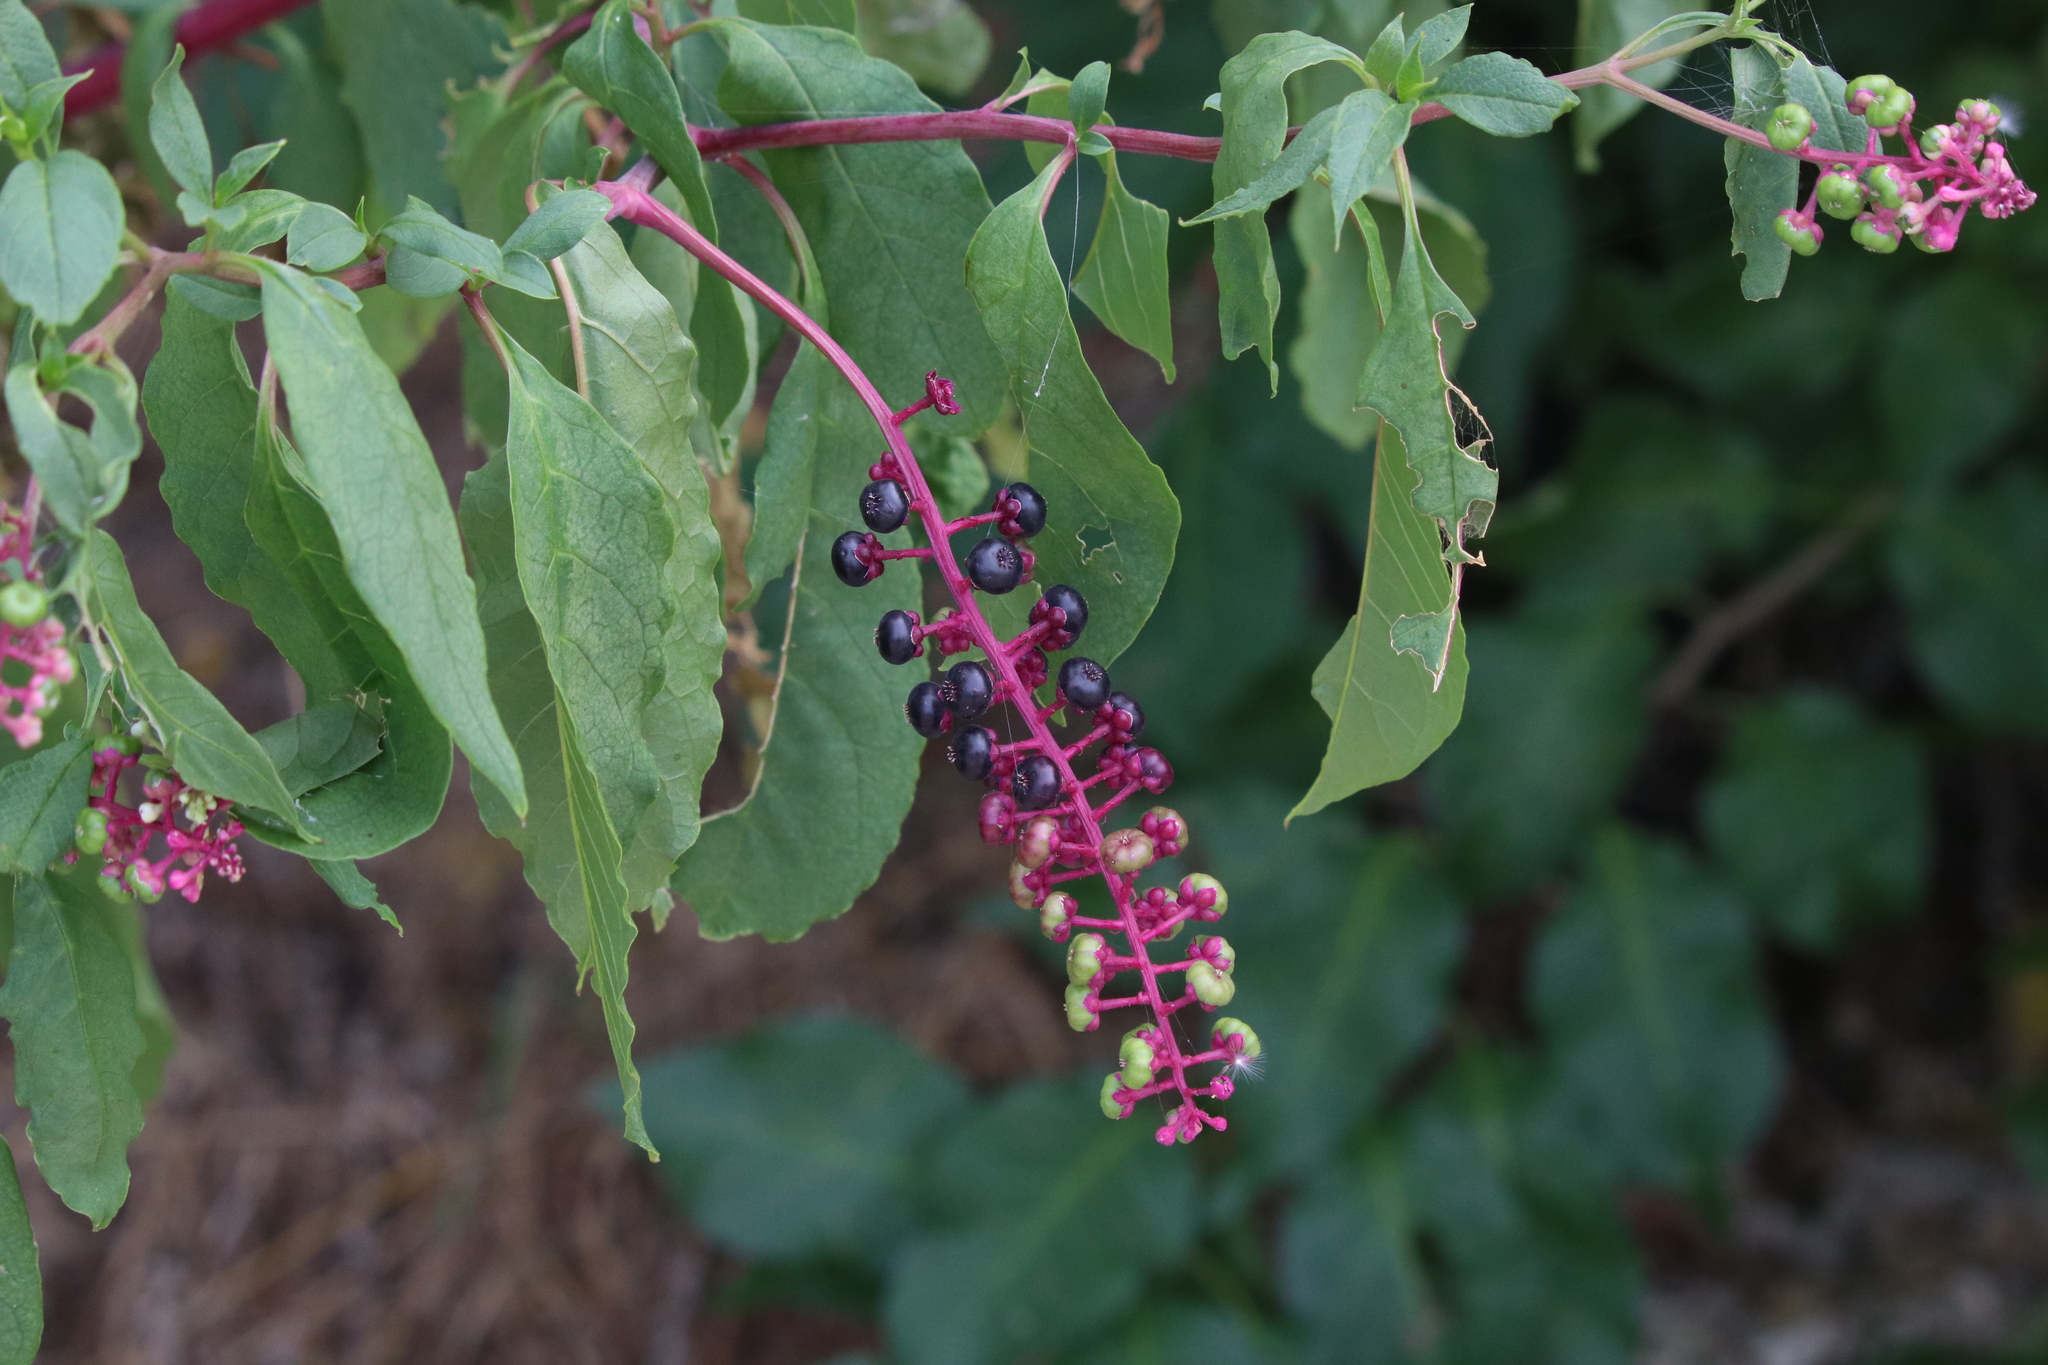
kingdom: Plantae
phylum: Tracheophyta
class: Magnoliopsida
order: Caryophyllales
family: Phytolaccaceae
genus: Phytolacca
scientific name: Phytolacca americana
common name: American pokeweed
